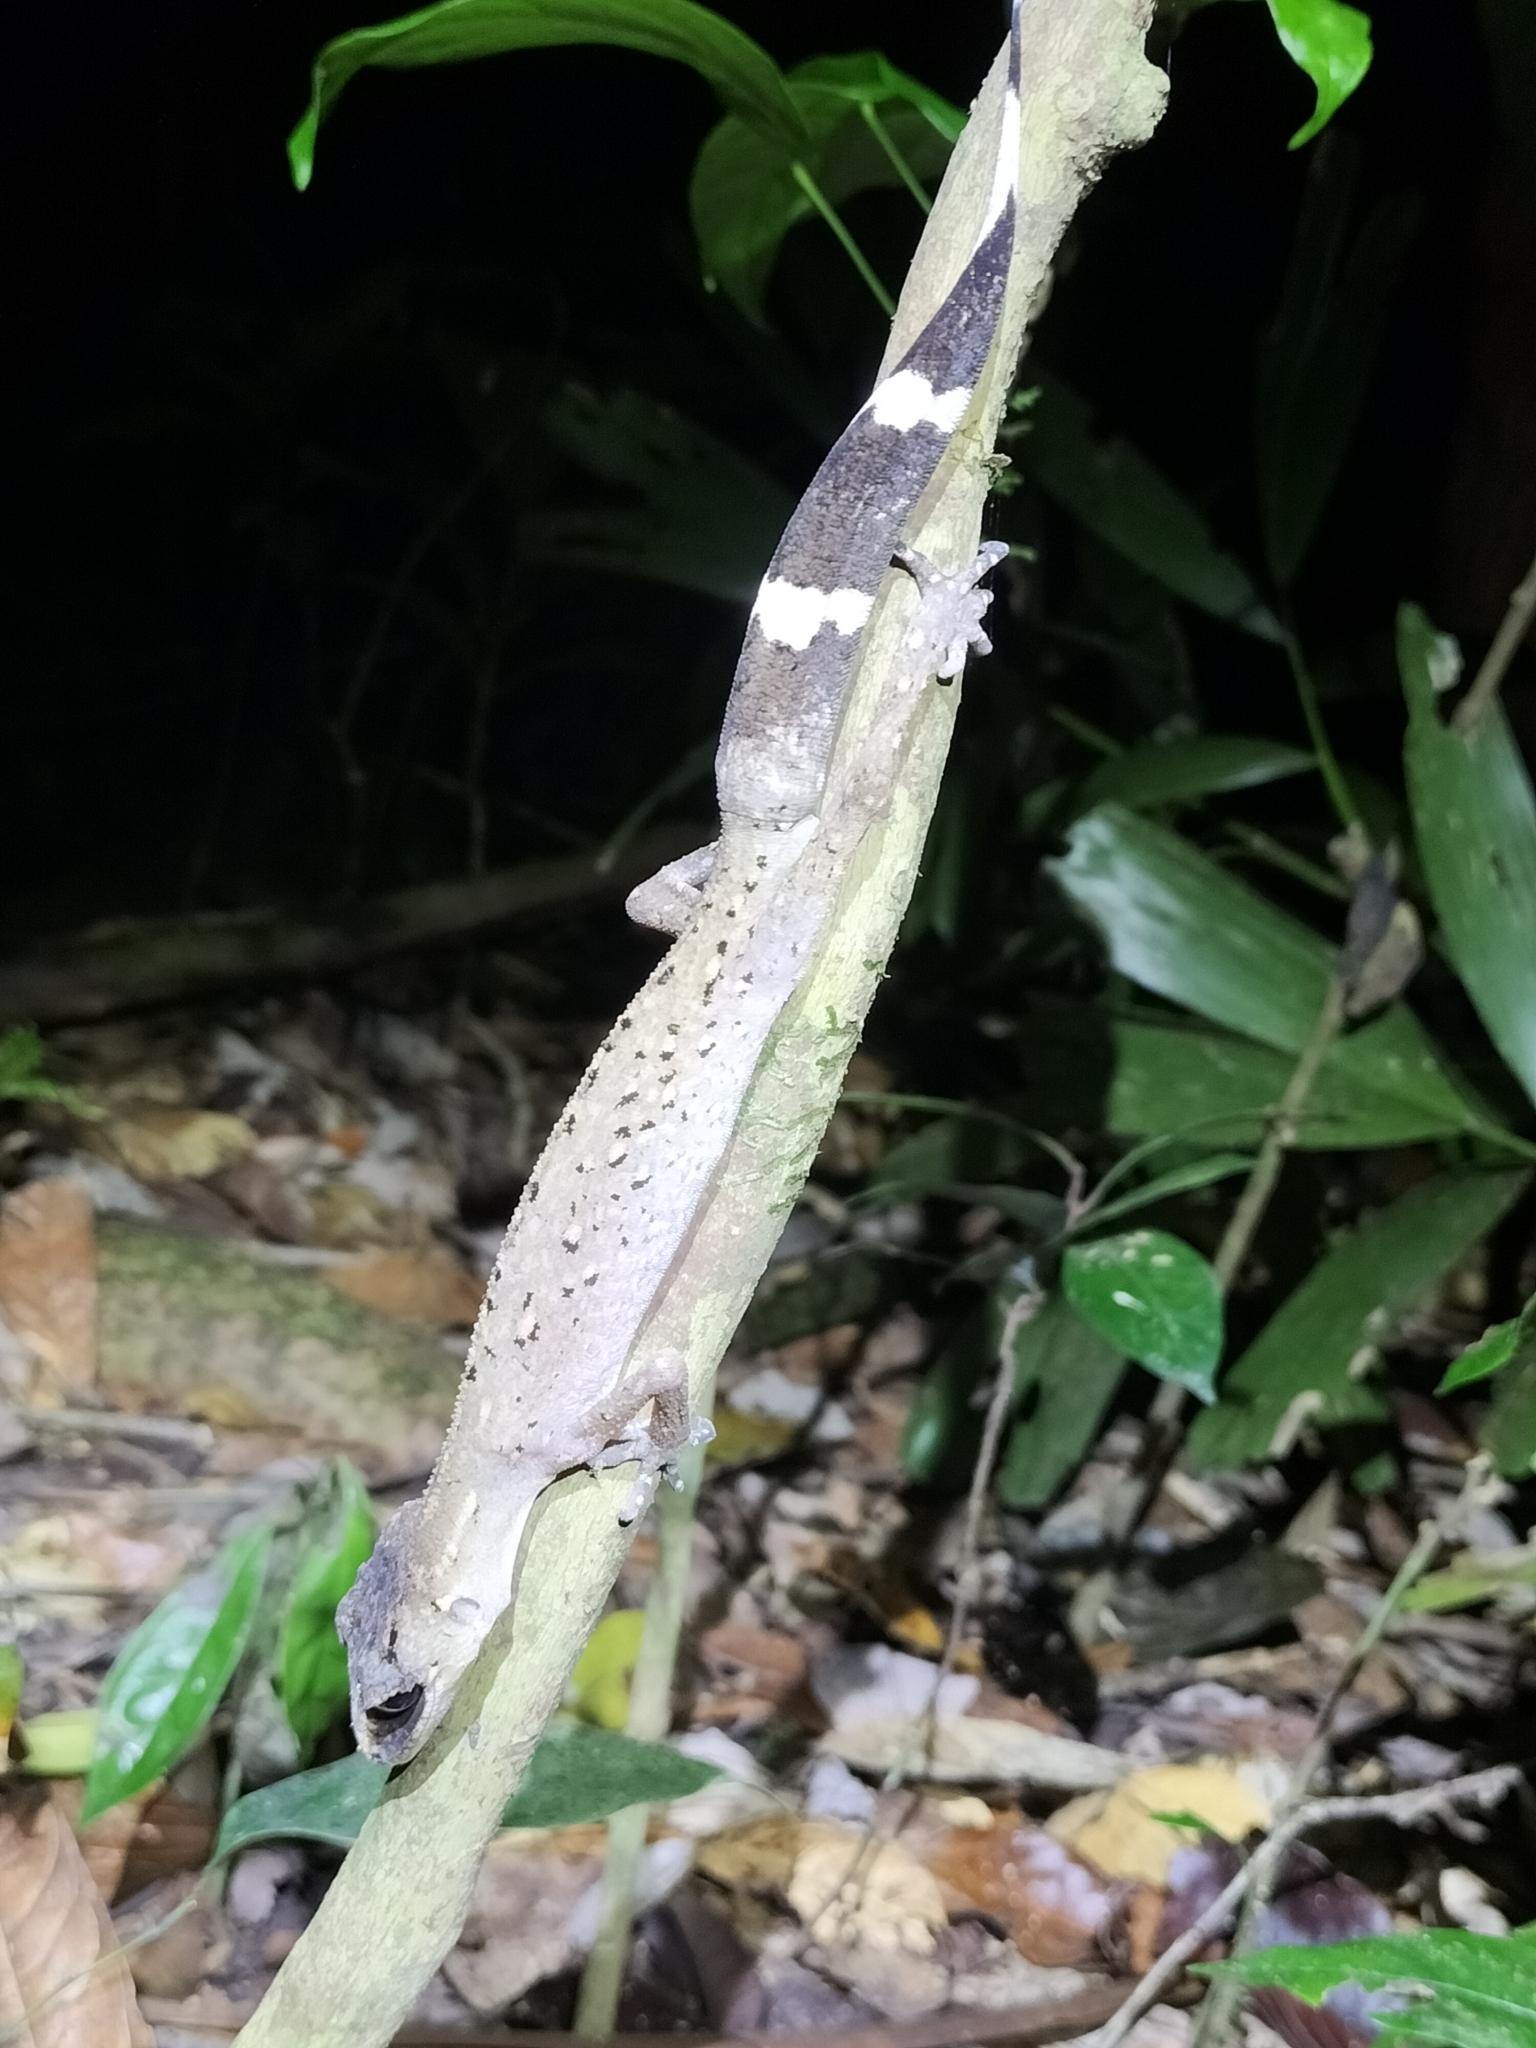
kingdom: Animalia
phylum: Chordata
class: Squamata
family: Carphodactylidae
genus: Carphodactylus
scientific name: Carphodactylus laevis
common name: Chameleon gecko
